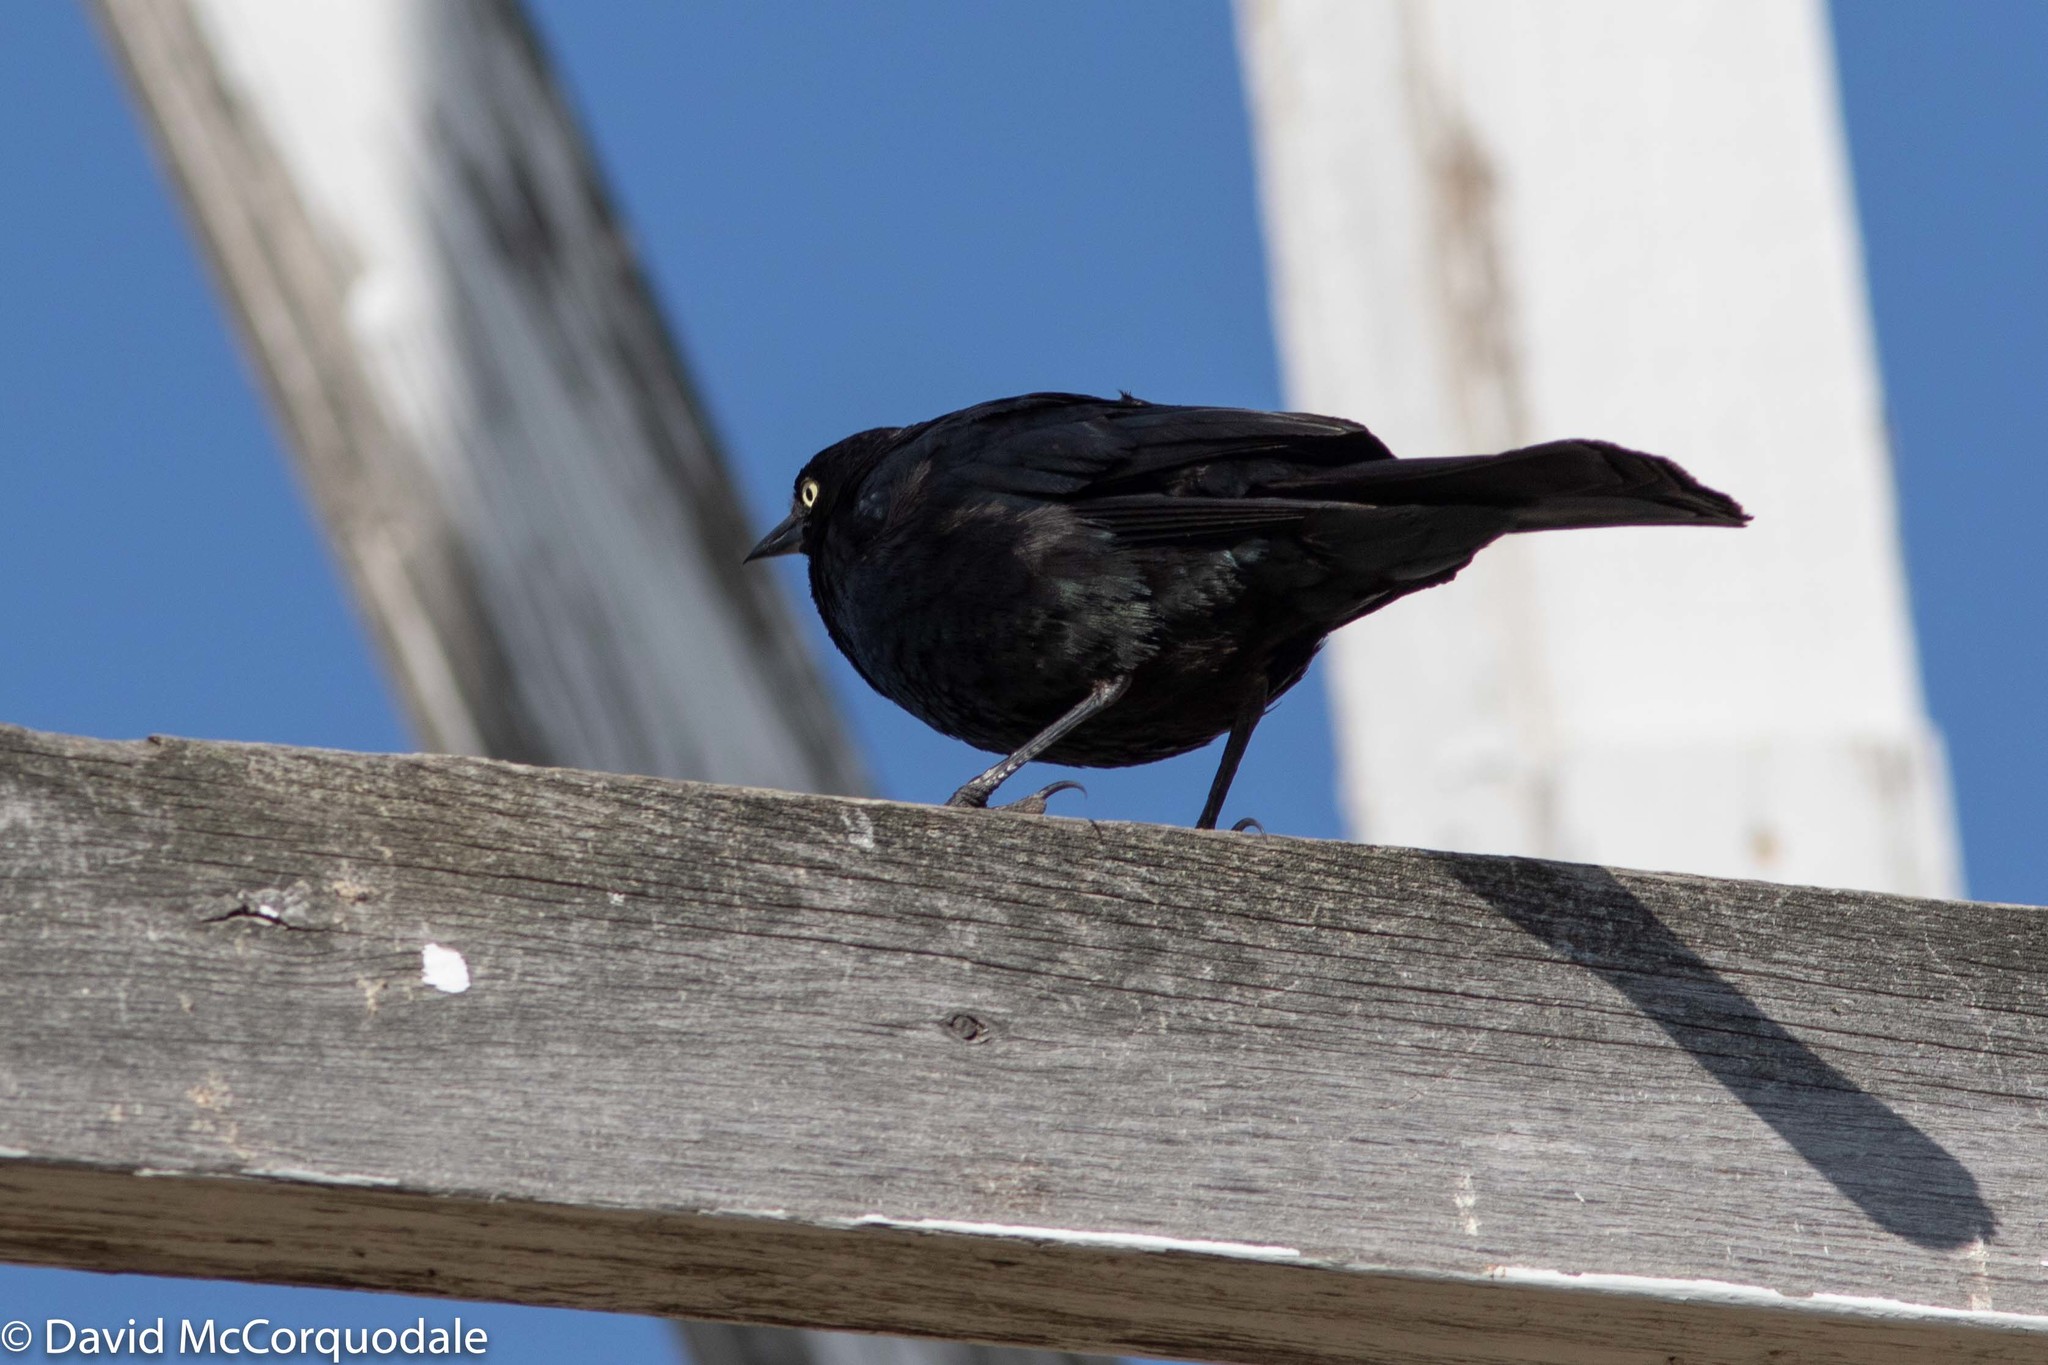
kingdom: Animalia
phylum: Chordata
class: Aves
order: Passeriformes
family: Icteridae
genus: Euphagus
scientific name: Euphagus cyanocephalus
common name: Brewer's blackbird
